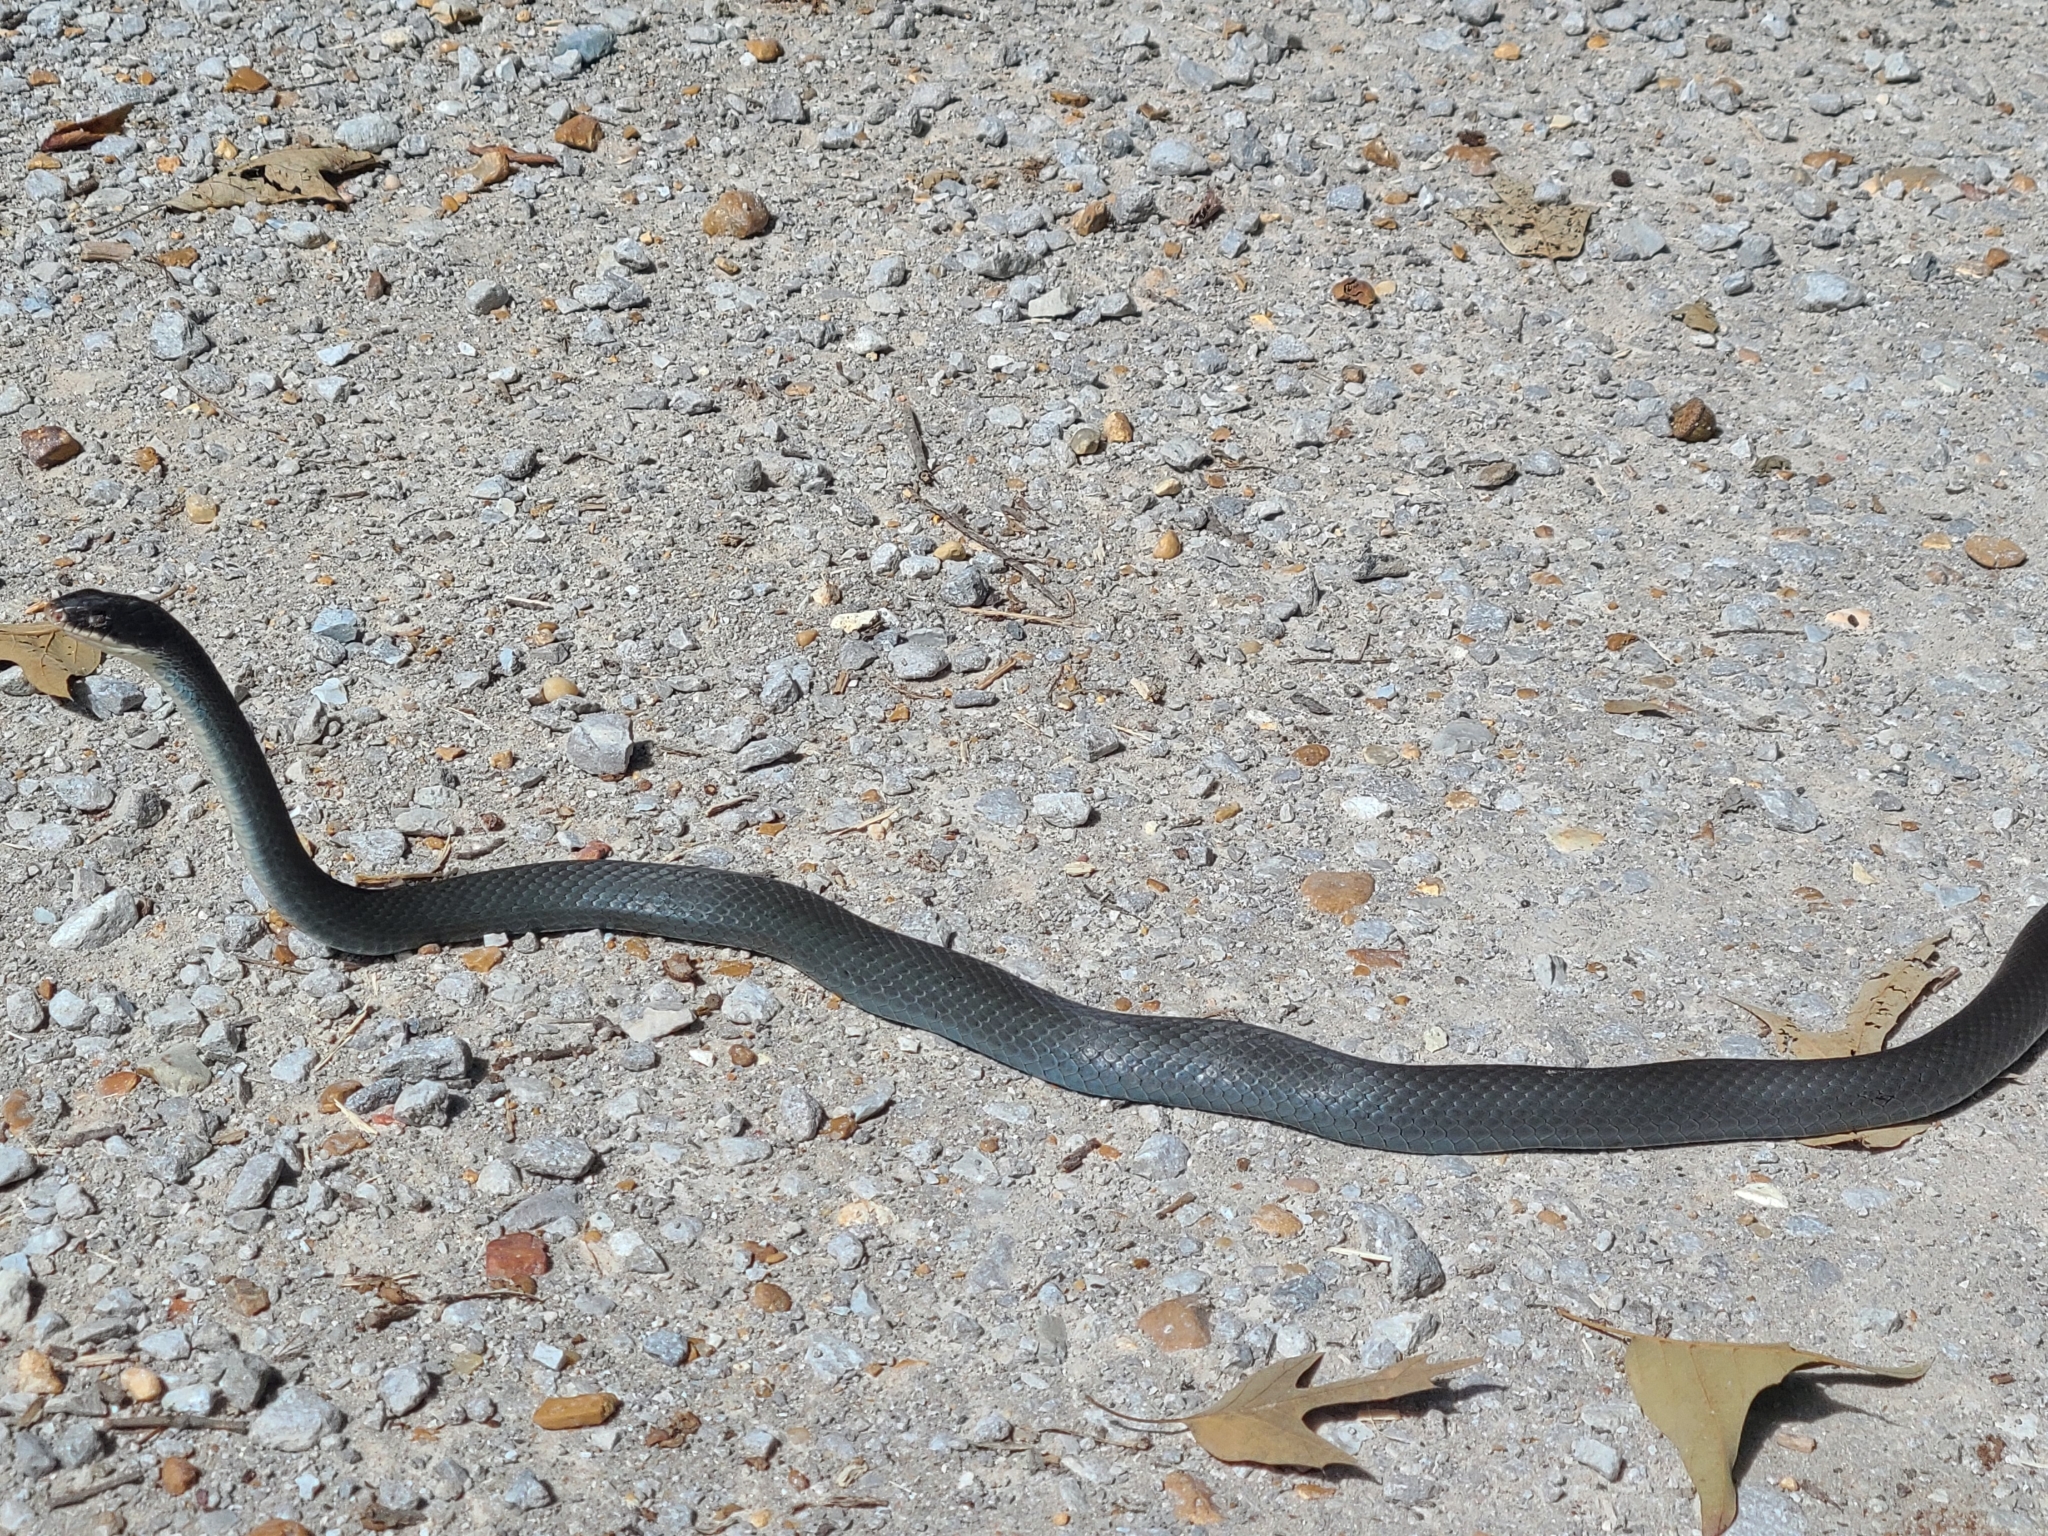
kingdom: Animalia
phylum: Chordata
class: Squamata
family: Colubridae
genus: Coluber
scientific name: Coluber constrictor
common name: Eastern racer
